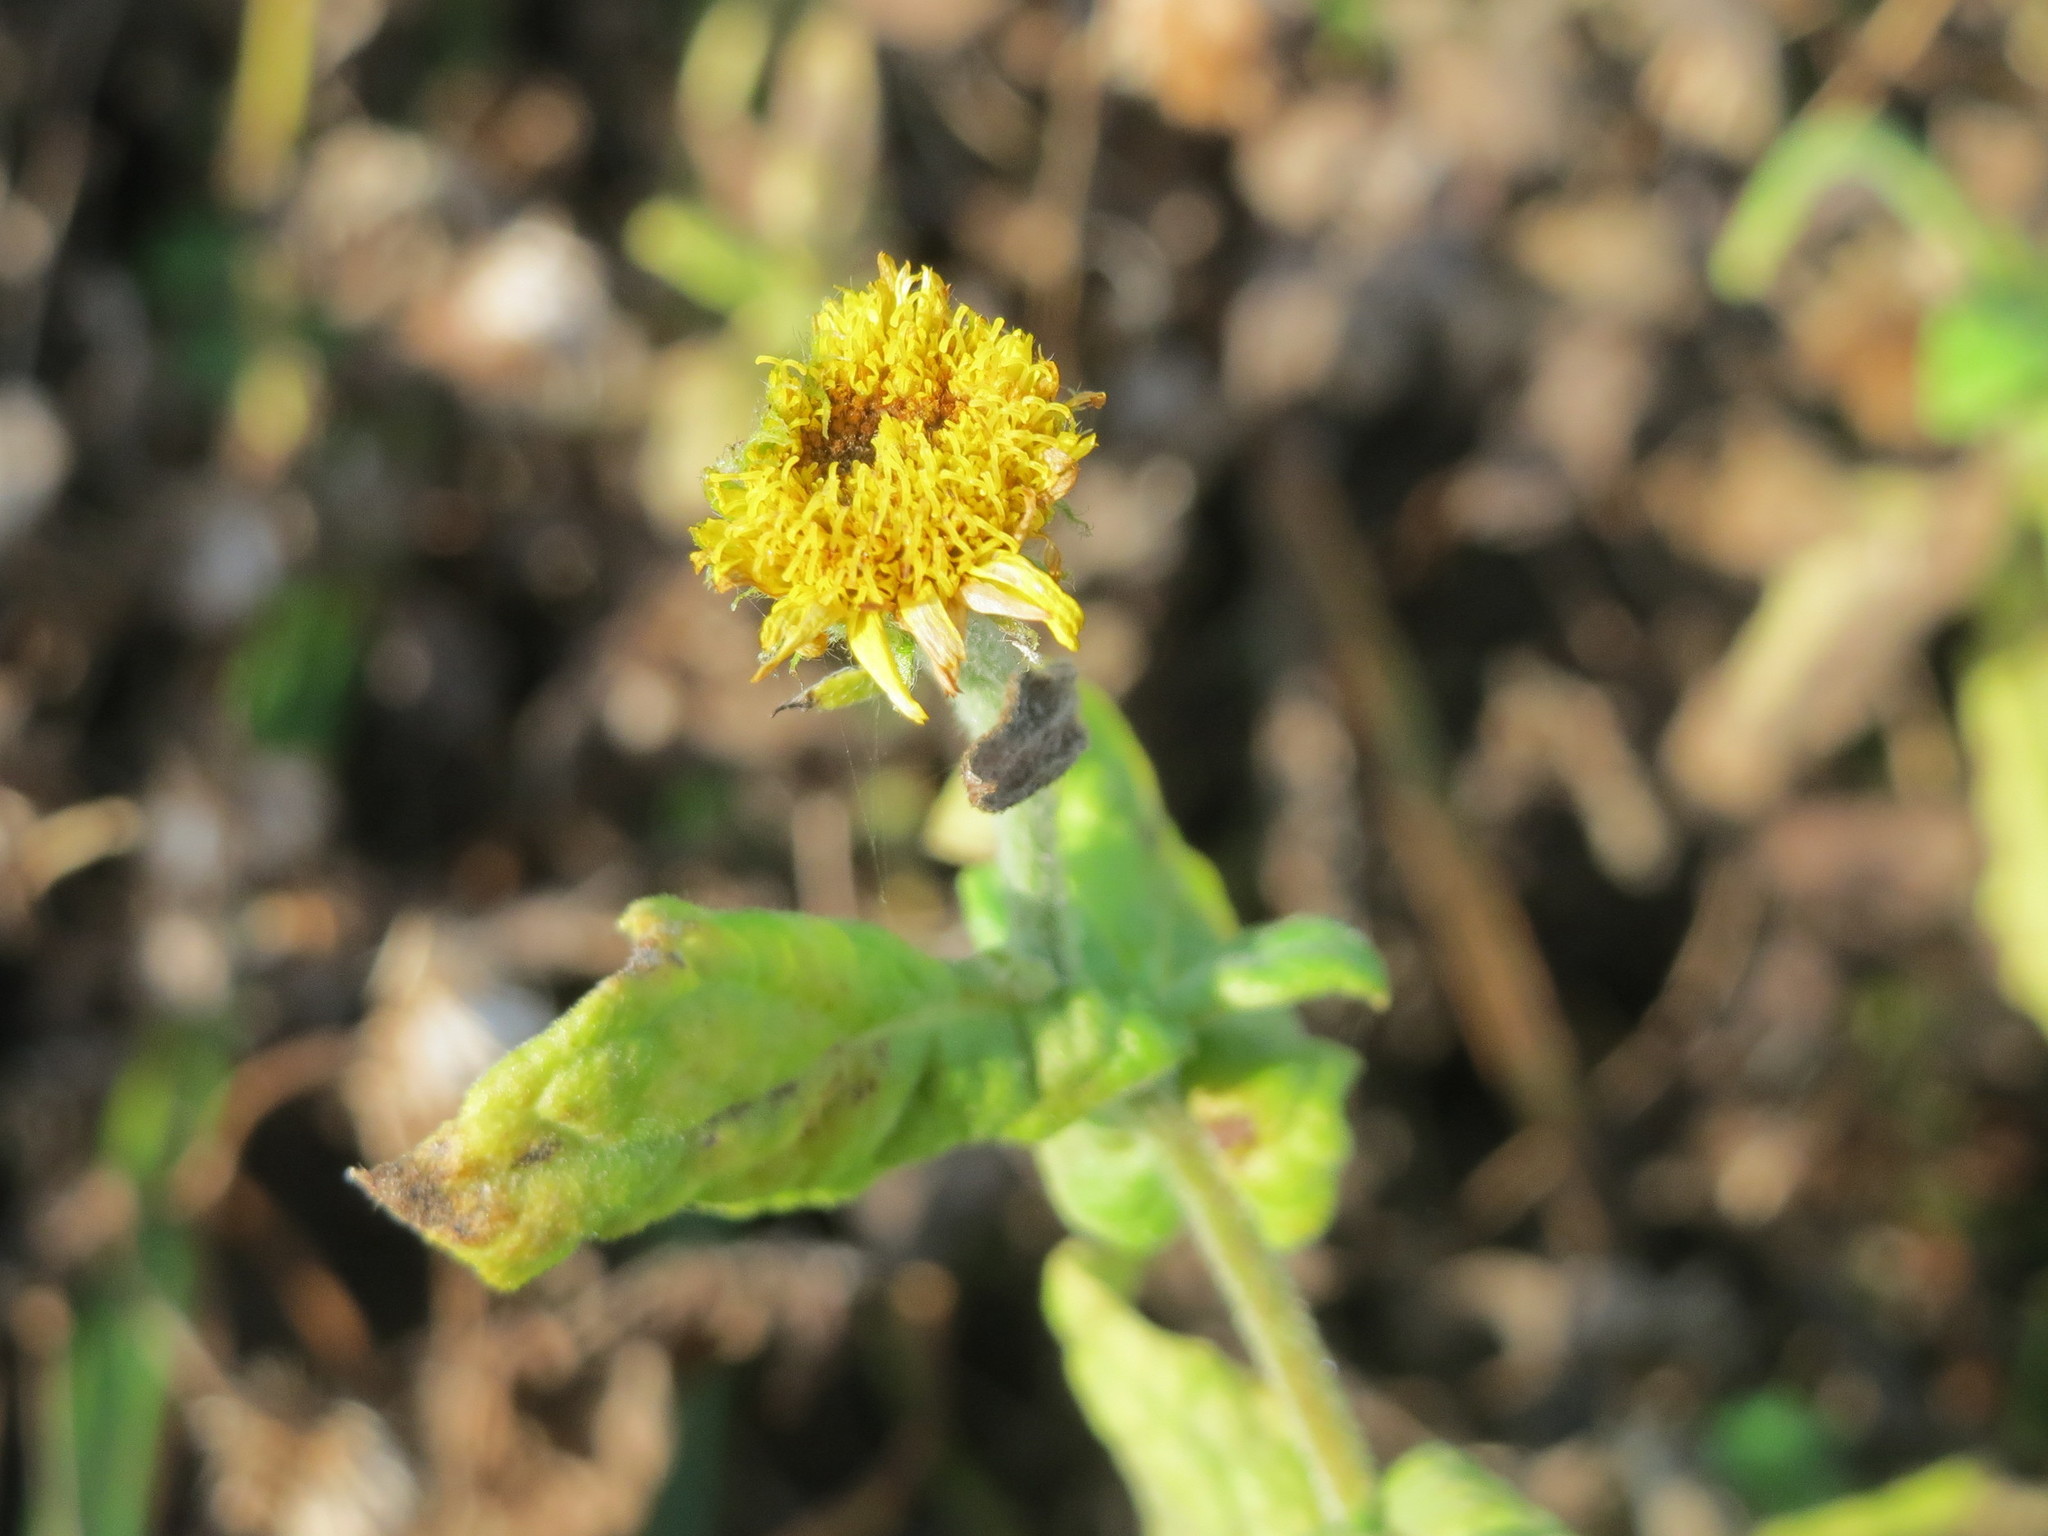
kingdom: Plantae
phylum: Tracheophyta
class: Magnoliopsida
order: Asterales
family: Asteraceae
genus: Pulicaria
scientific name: Pulicaria dysenterica
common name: Common fleabane
